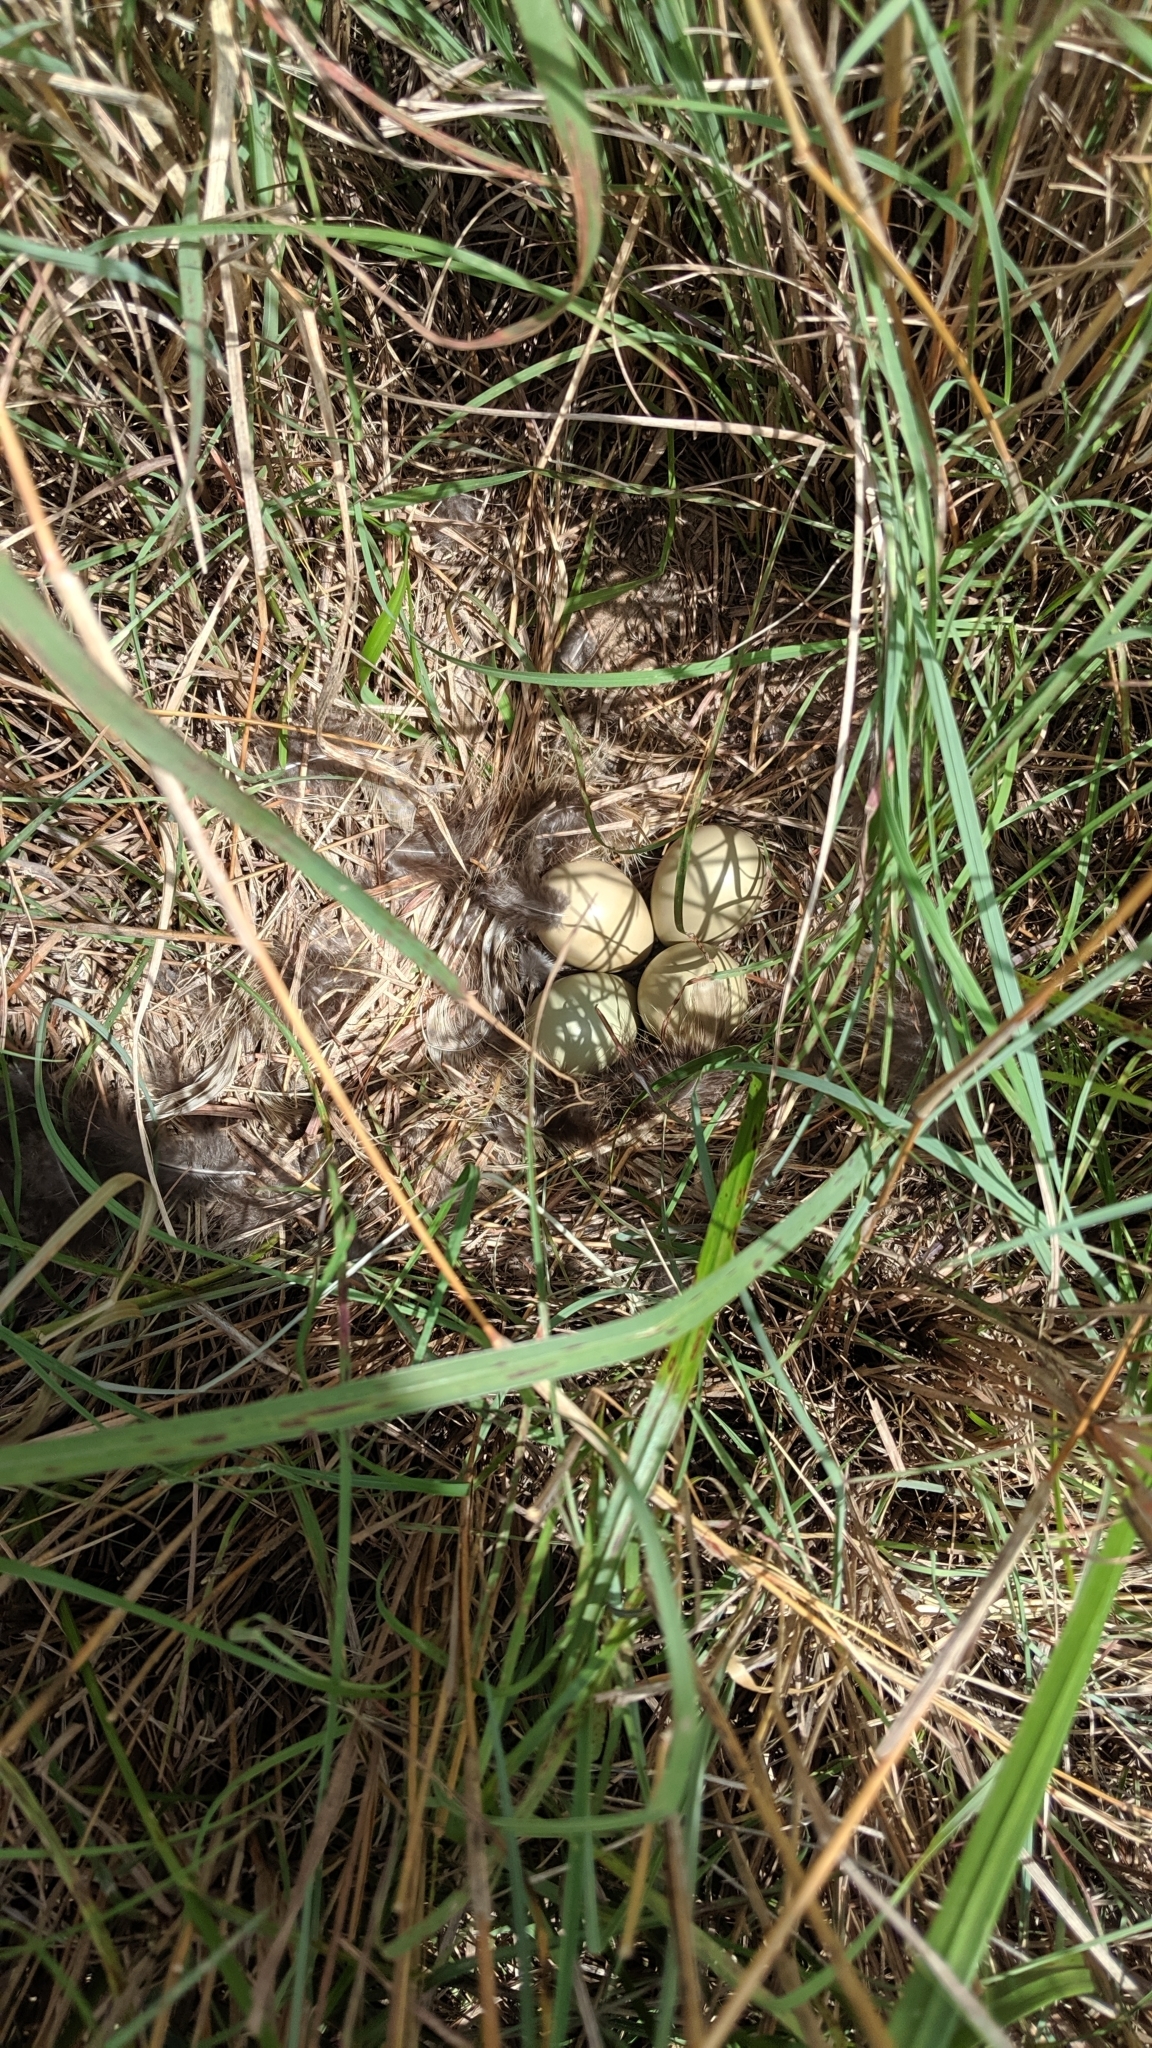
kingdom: Animalia
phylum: Chordata
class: Aves
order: Galliformes
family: Phasianidae
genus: Phasianus
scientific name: Phasianus colchicus
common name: Common pheasant
